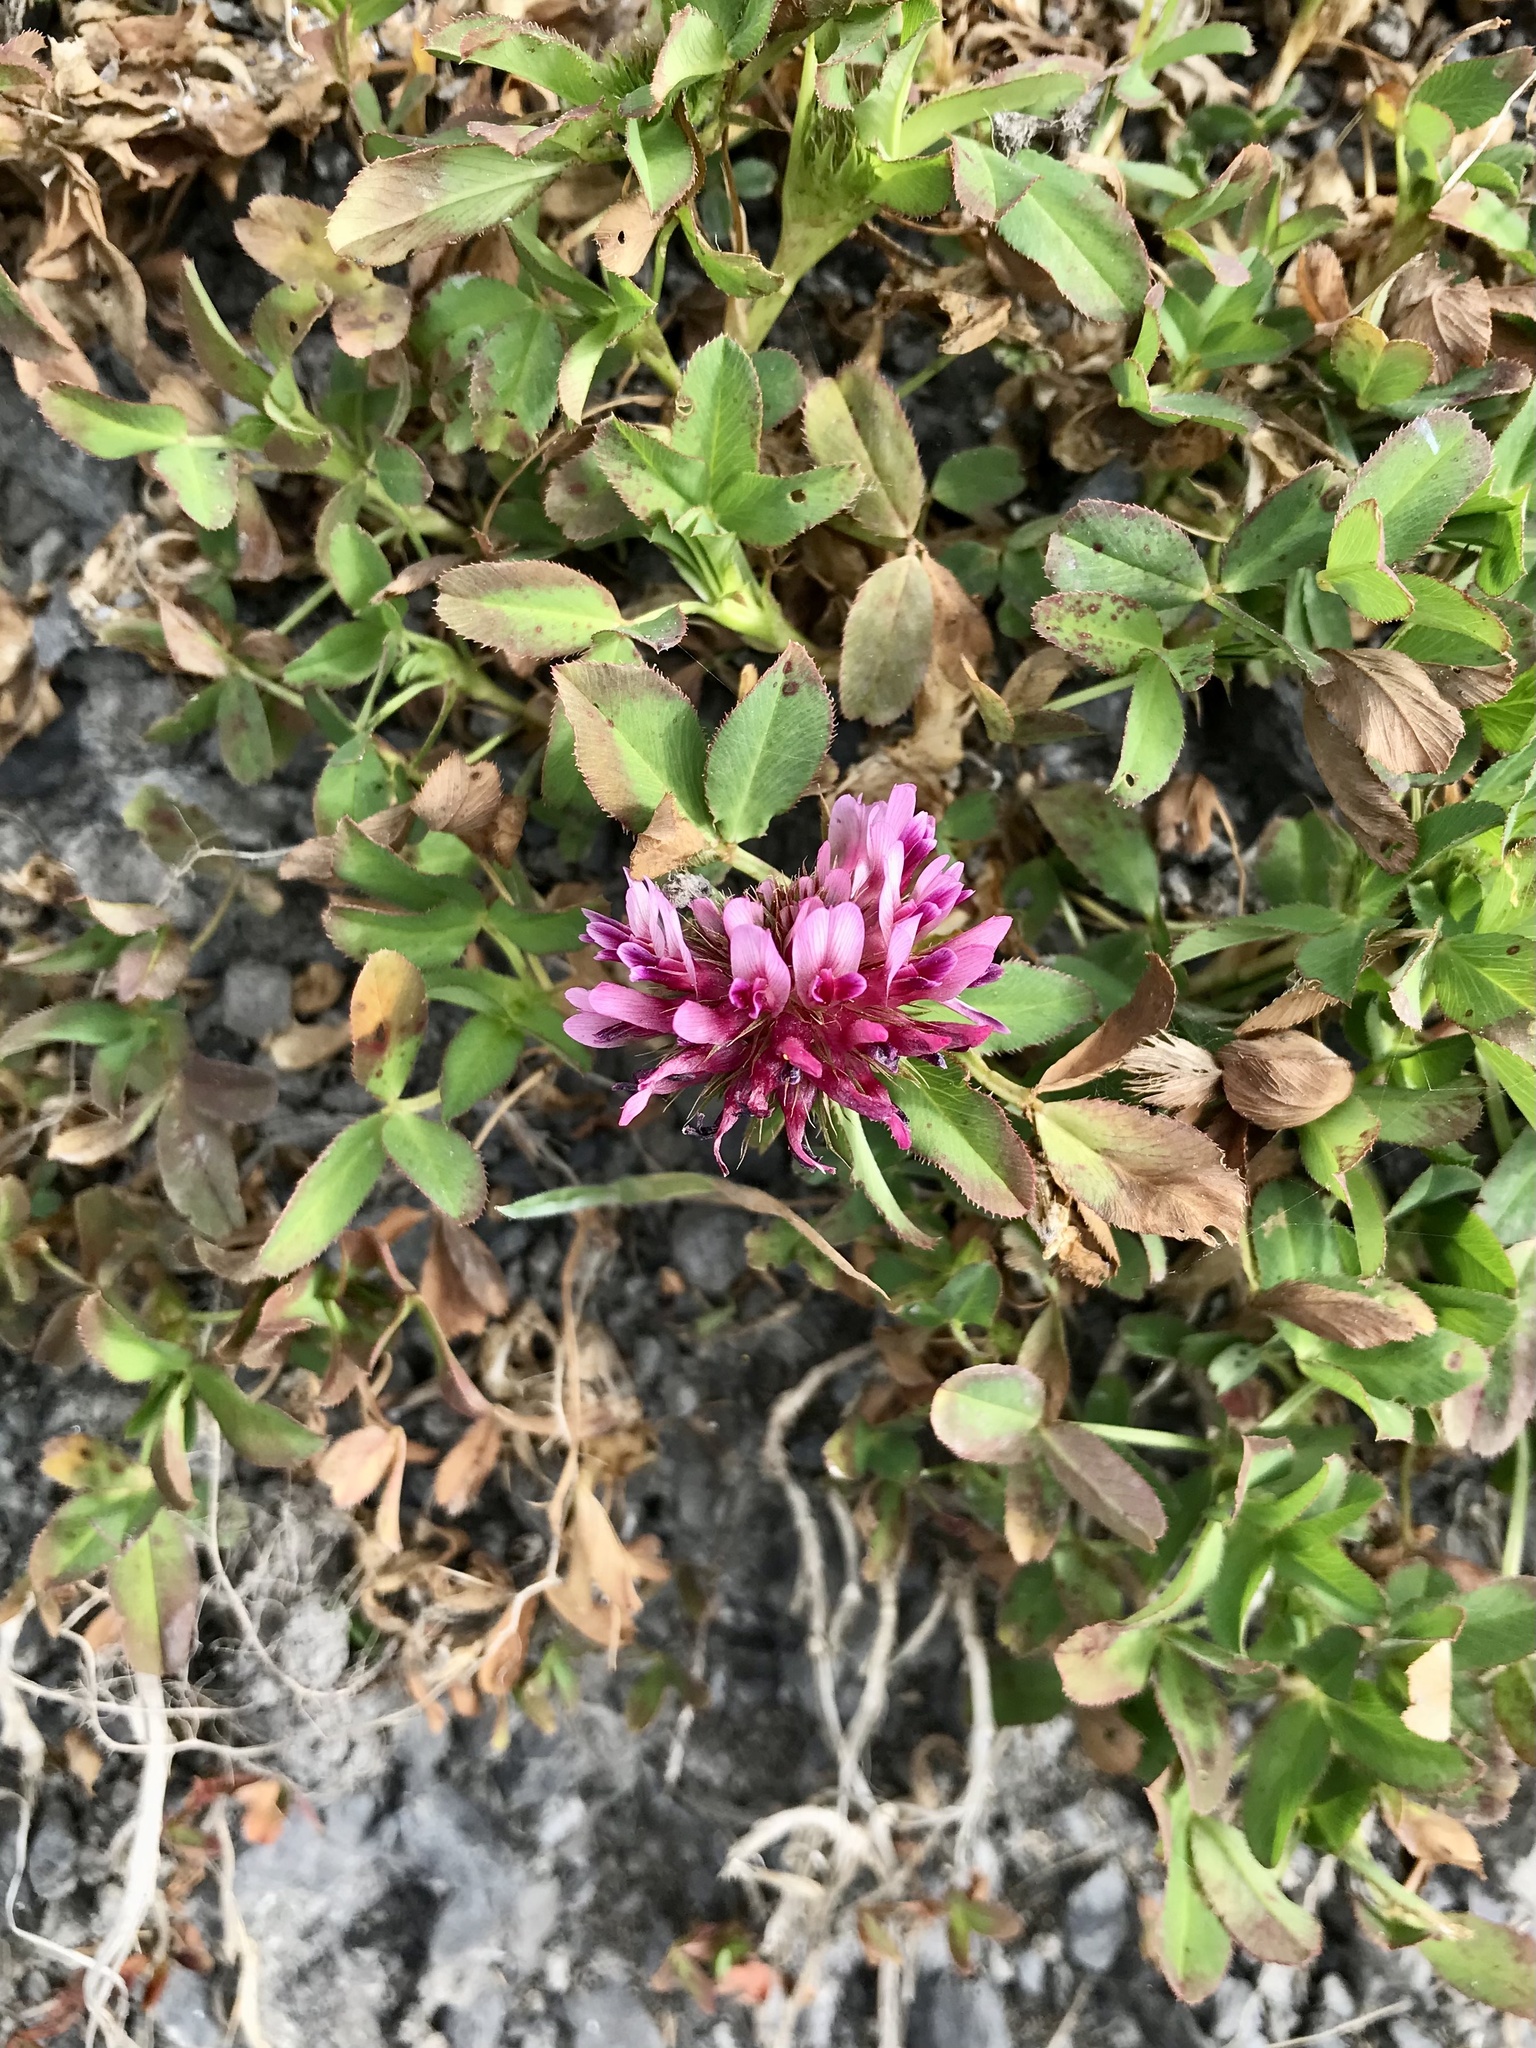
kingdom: Plantae
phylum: Tracheophyta
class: Magnoliopsida
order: Fabales
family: Fabaceae
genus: Trifolium
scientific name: Trifolium wormskioldii
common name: Springbank clover
